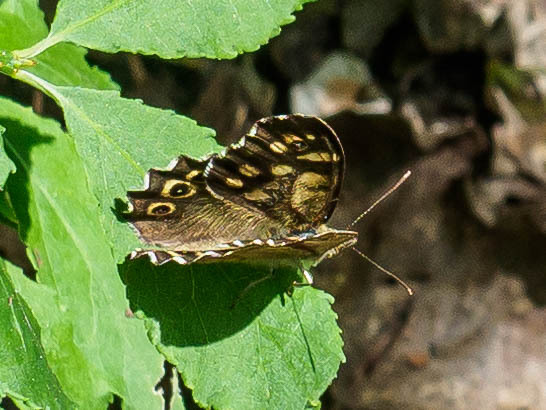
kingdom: Animalia
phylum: Arthropoda
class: Insecta
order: Lepidoptera
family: Nymphalidae
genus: Pararge
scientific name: Pararge aegeria
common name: Speckled wood
